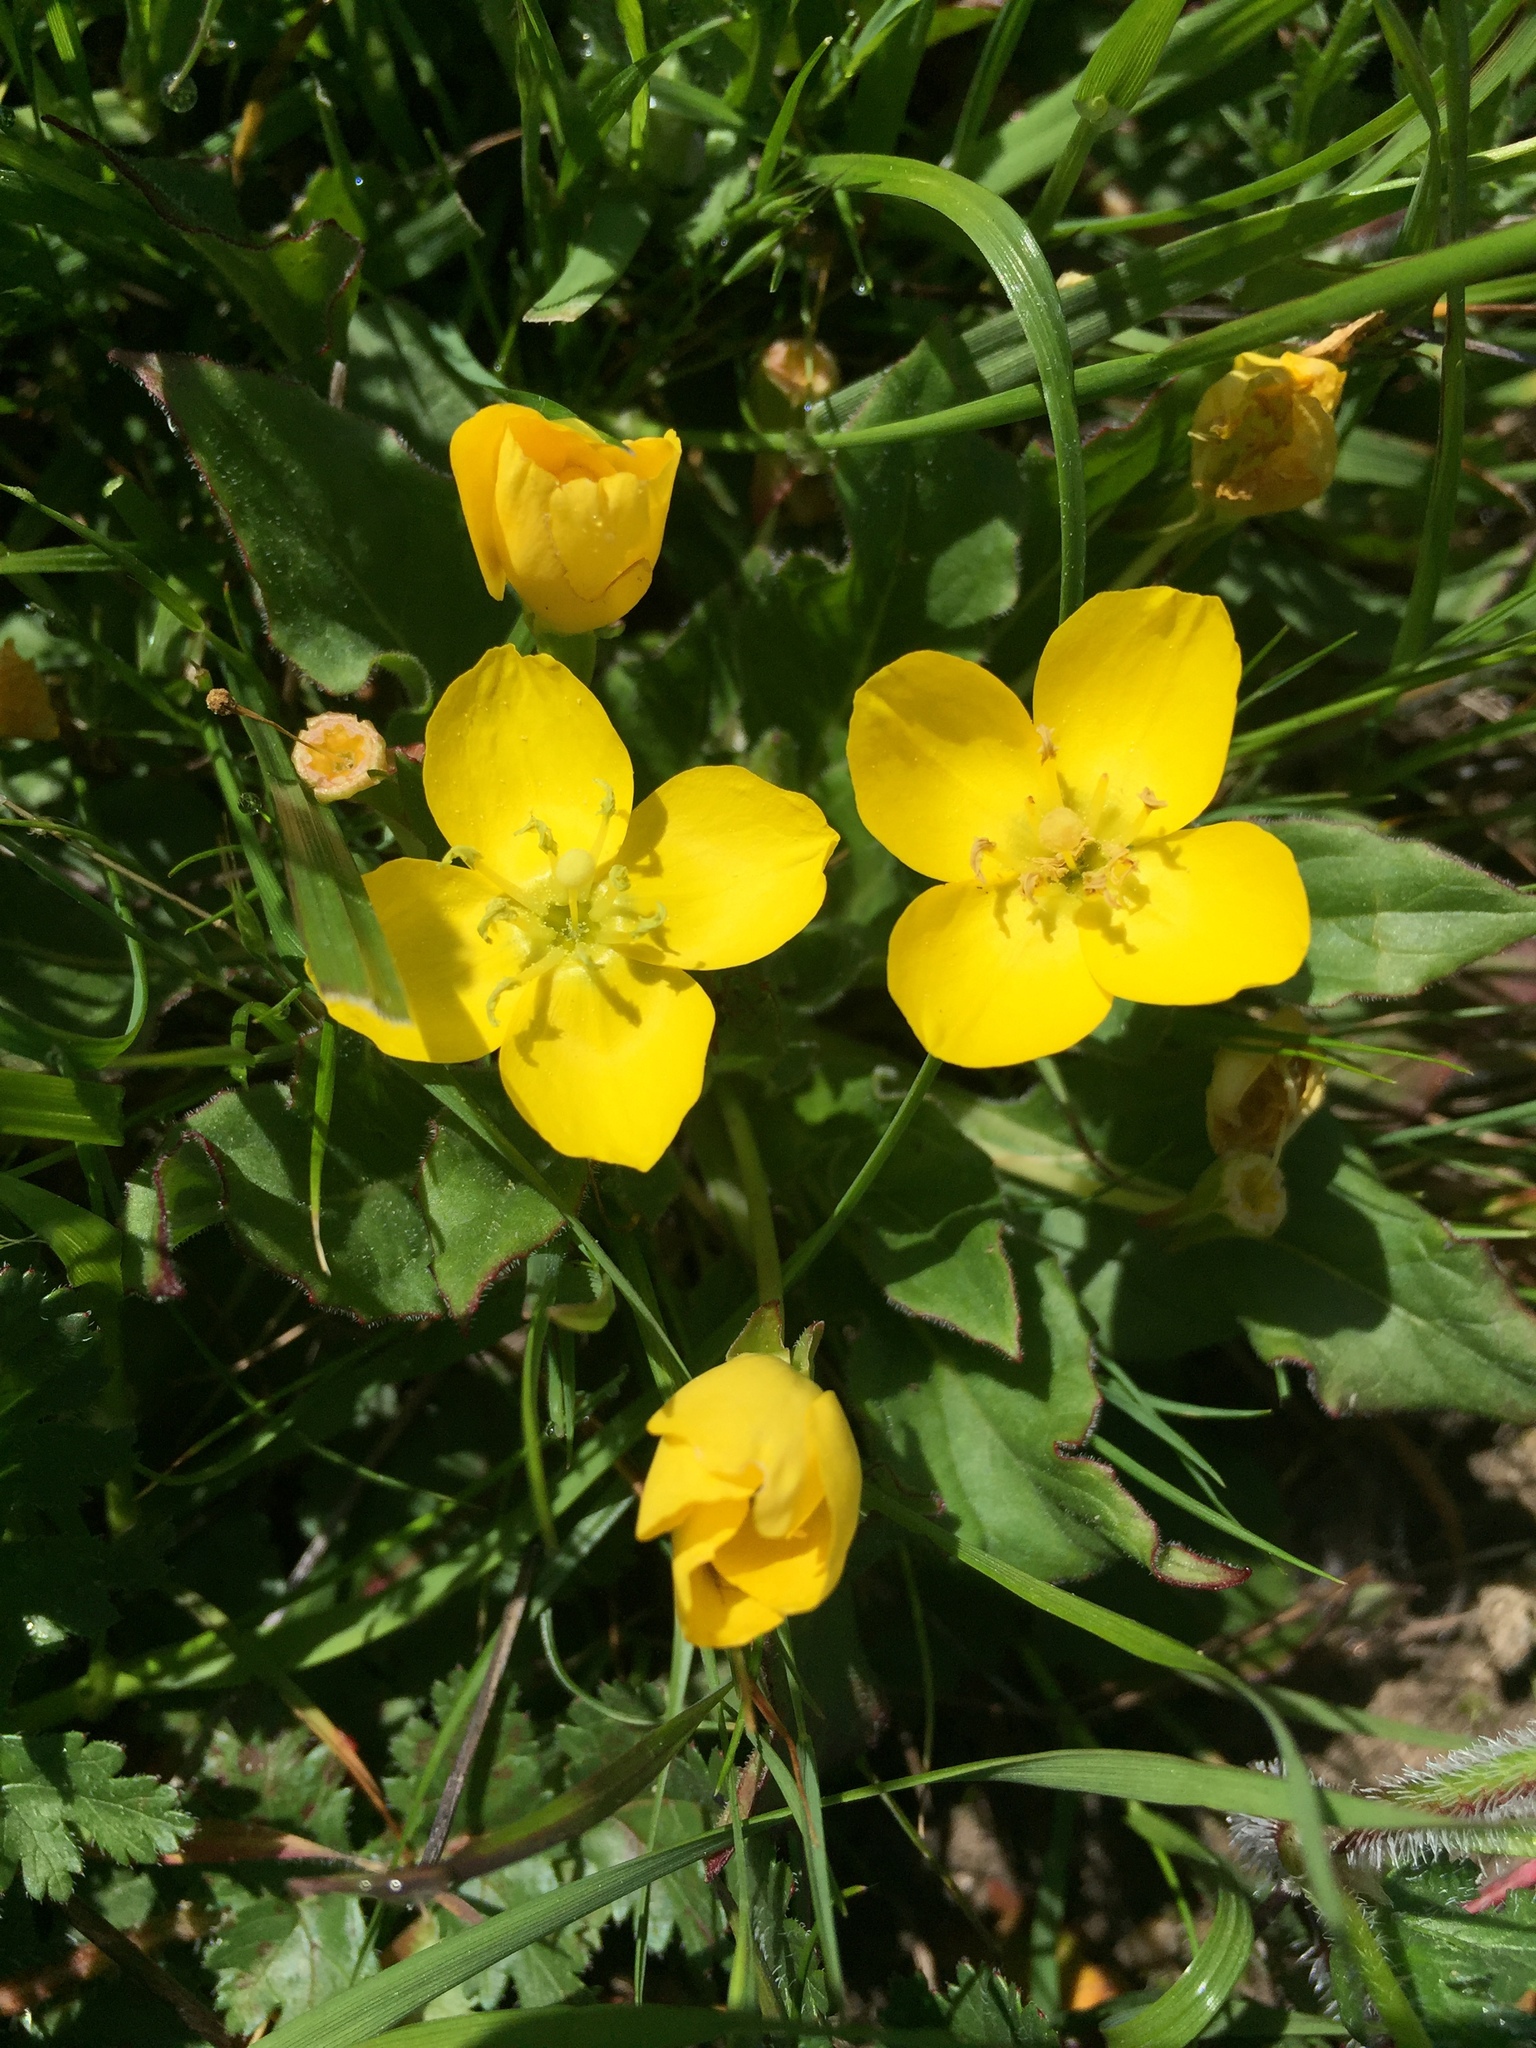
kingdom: Plantae
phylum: Tracheophyta
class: Magnoliopsida
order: Myrtales
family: Onagraceae
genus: Taraxia
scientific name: Taraxia ovata
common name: Goldeneggs
